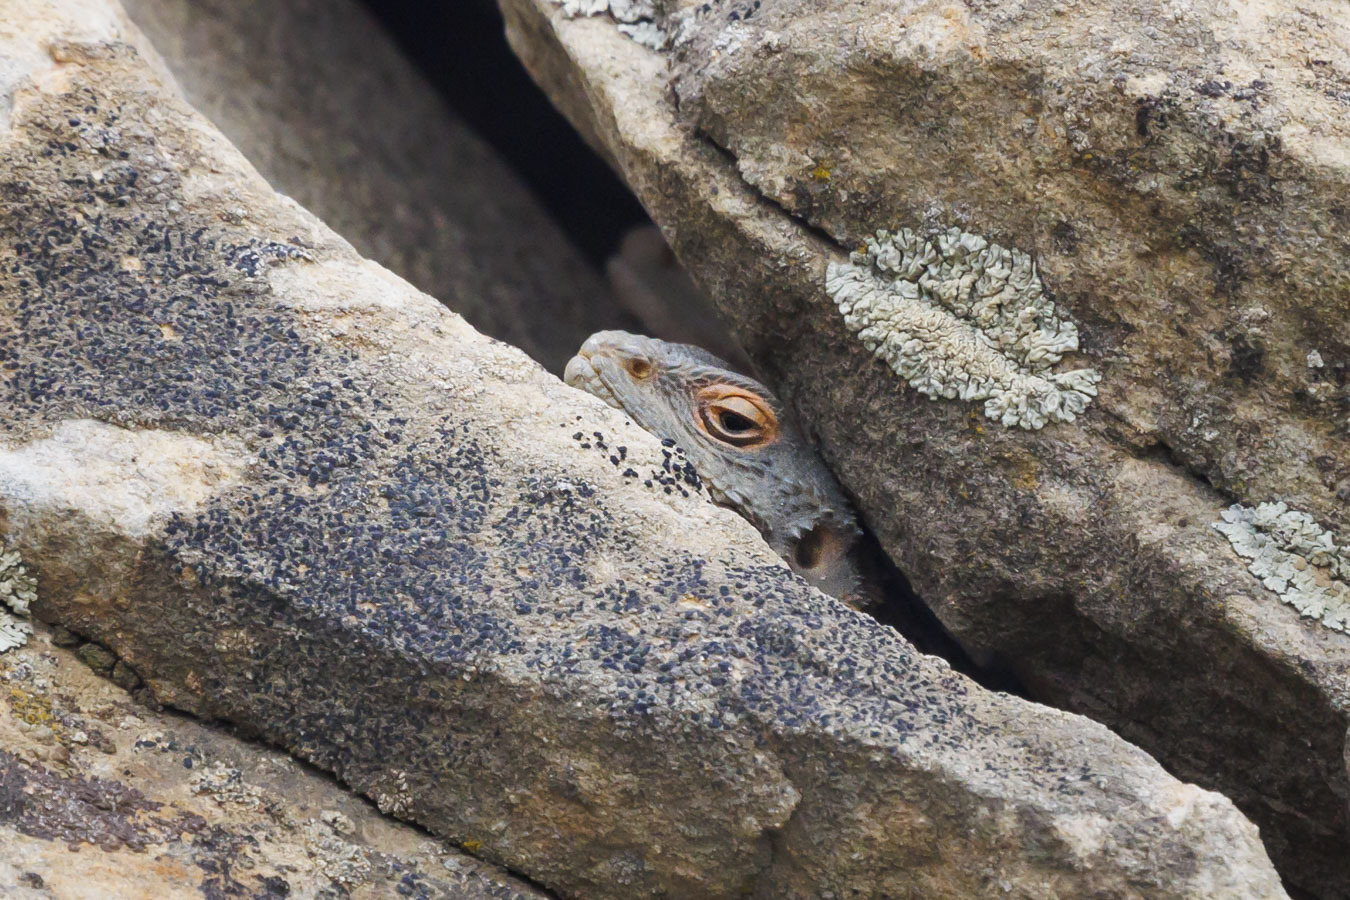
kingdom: Animalia
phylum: Chordata
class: Squamata
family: Agamidae
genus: Paralaudakia
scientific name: Paralaudakia caucasia
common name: Caucasian agama
